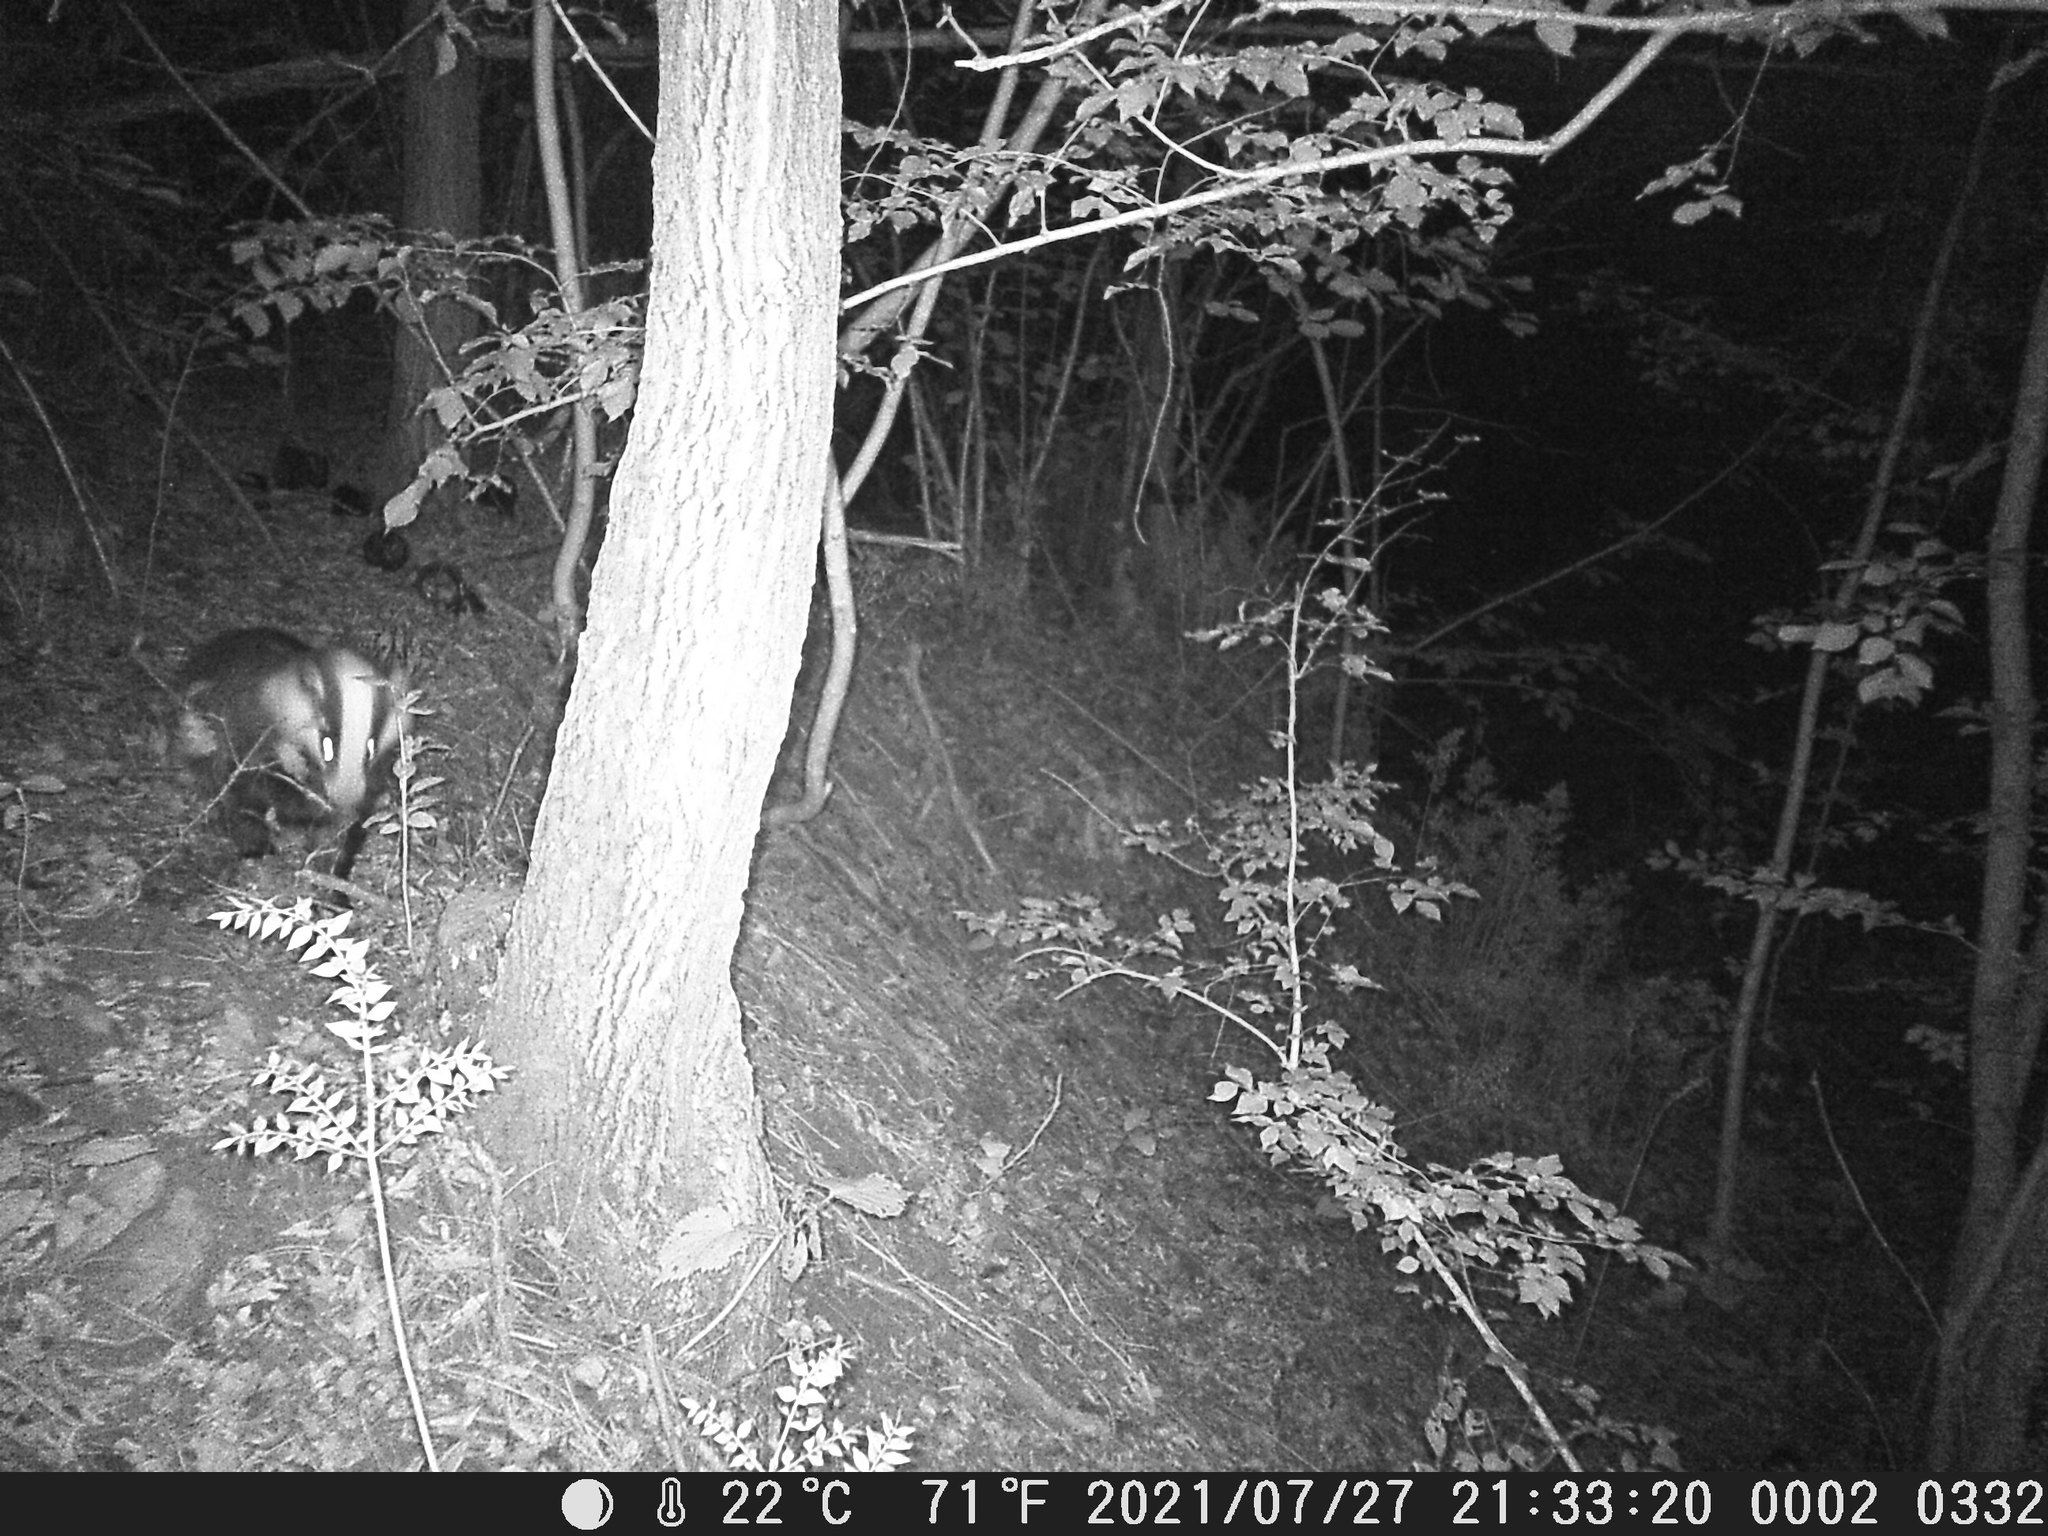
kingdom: Animalia
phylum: Chordata
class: Mammalia
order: Carnivora
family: Mustelidae
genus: Meles
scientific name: Meles meles
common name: Eurasian badger
